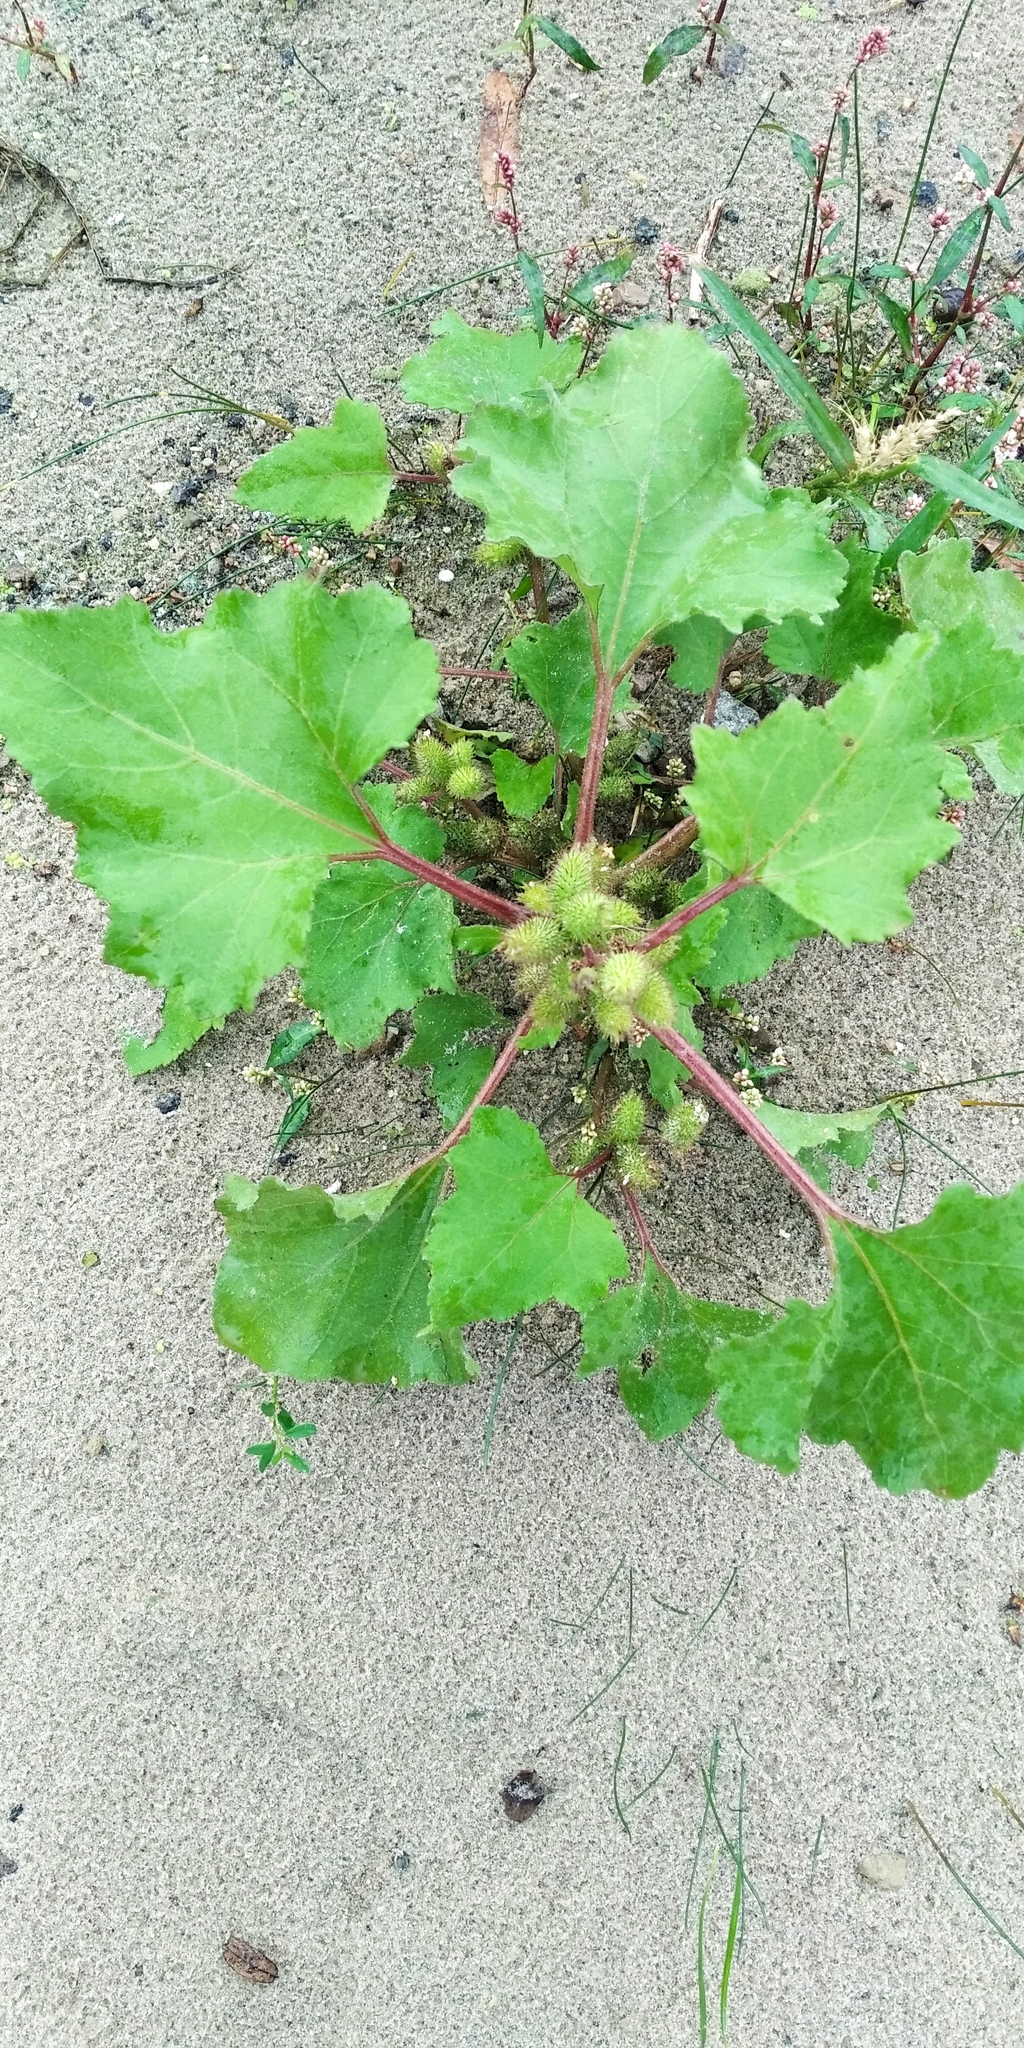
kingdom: Plantae
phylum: Tracheophyta
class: Magnoliopsida
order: Asterales
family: Asteraceae
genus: Xanthium
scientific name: Xanthium orientale
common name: Californian burr
